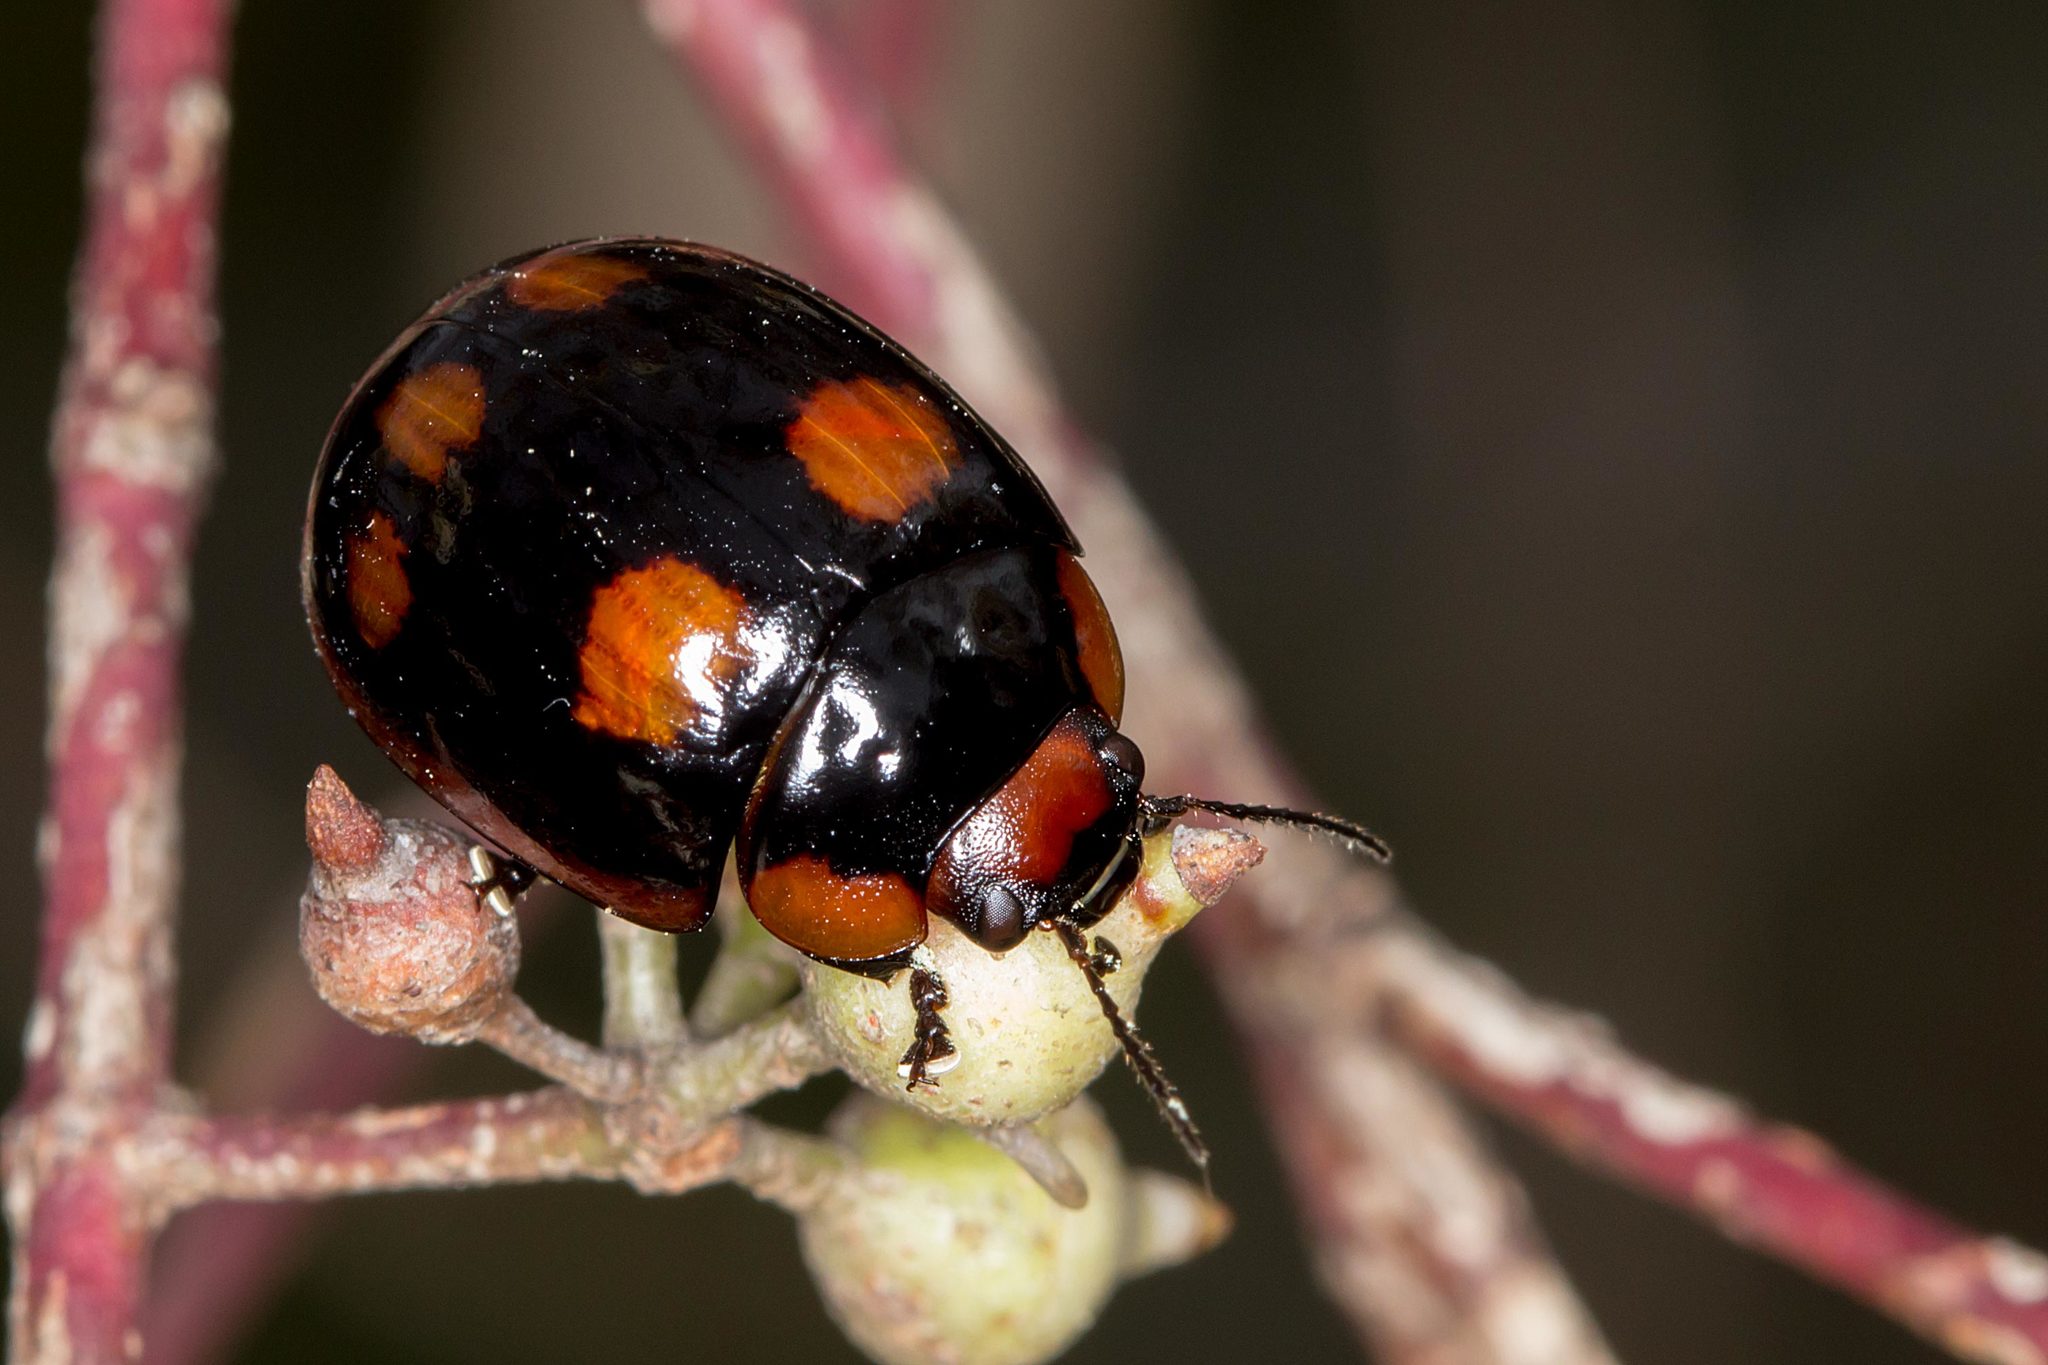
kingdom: Animalia
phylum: Arthropoda
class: Insecta
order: Coleoptera
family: Chrysomelidae
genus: Paropsisterna
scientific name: Paropsisterna beata
